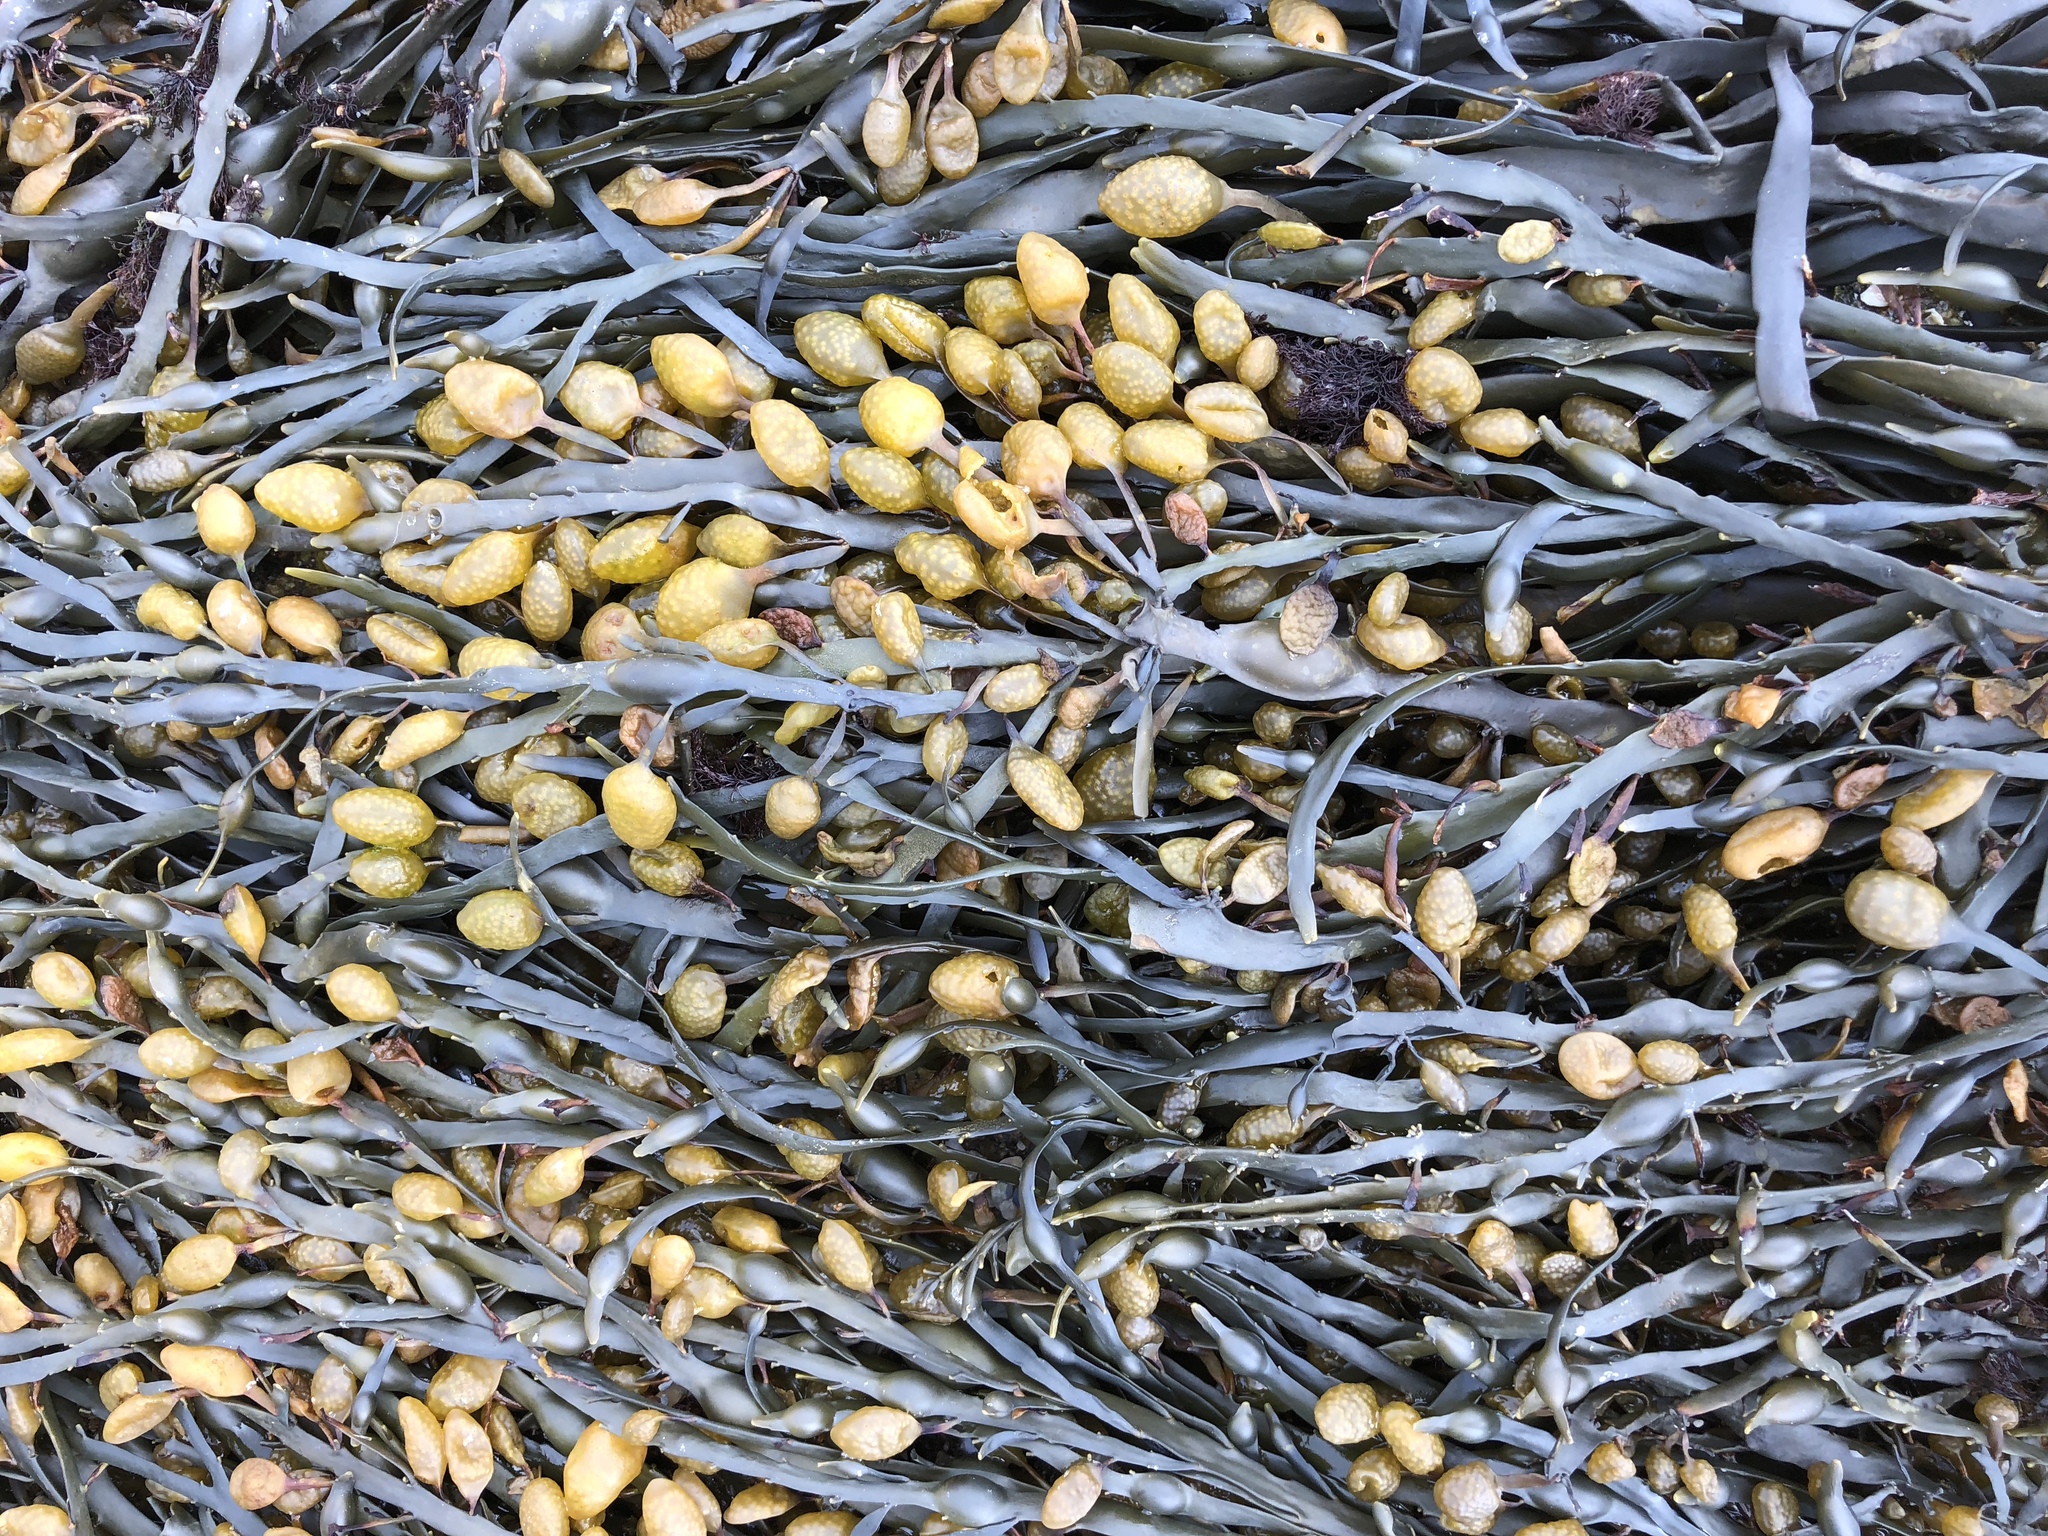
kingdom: Chromista
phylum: Ochrophyta
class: Phaeophyceae
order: Fucales
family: Fucaceae
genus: Ascophyllum
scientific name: Ascophyllum nodosum
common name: Knotted wrack
